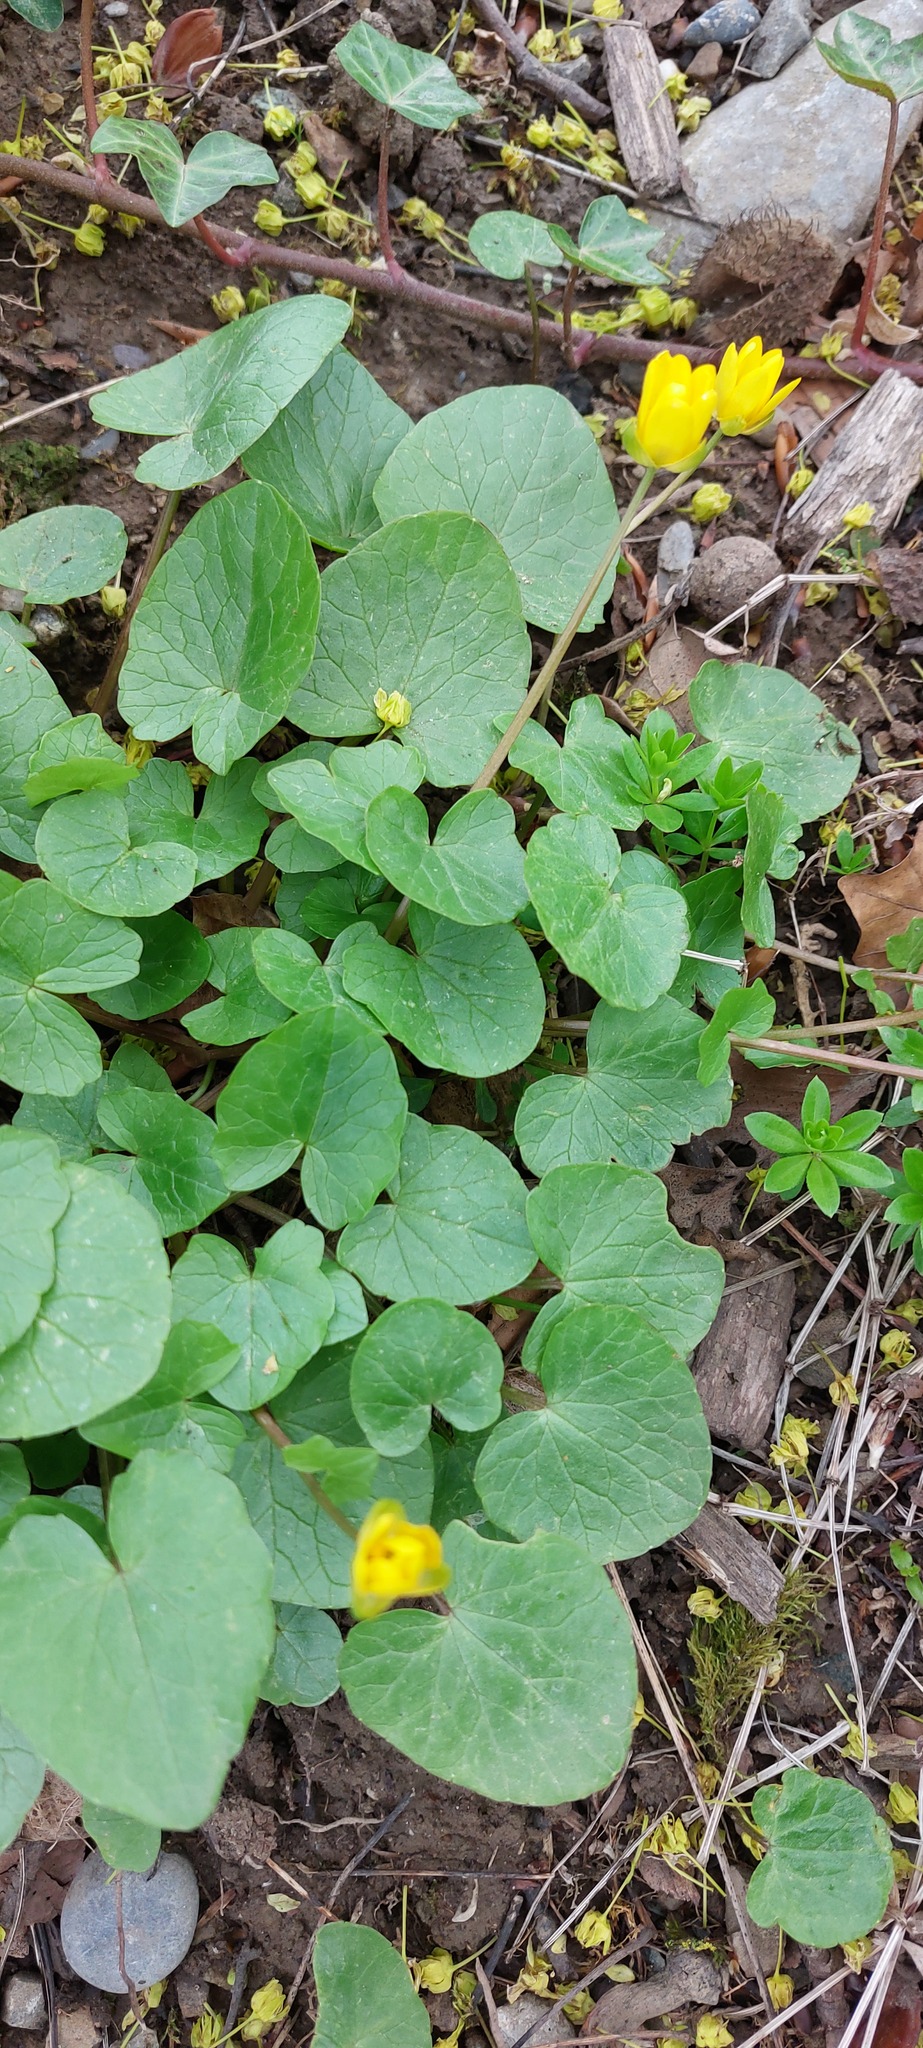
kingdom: Plantae
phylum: Tracheophyta
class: Magnoliopsida
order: Ranunculales
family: Ranunculaceae
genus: Ficaria
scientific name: Ficaria verna
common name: Lesser celandine
